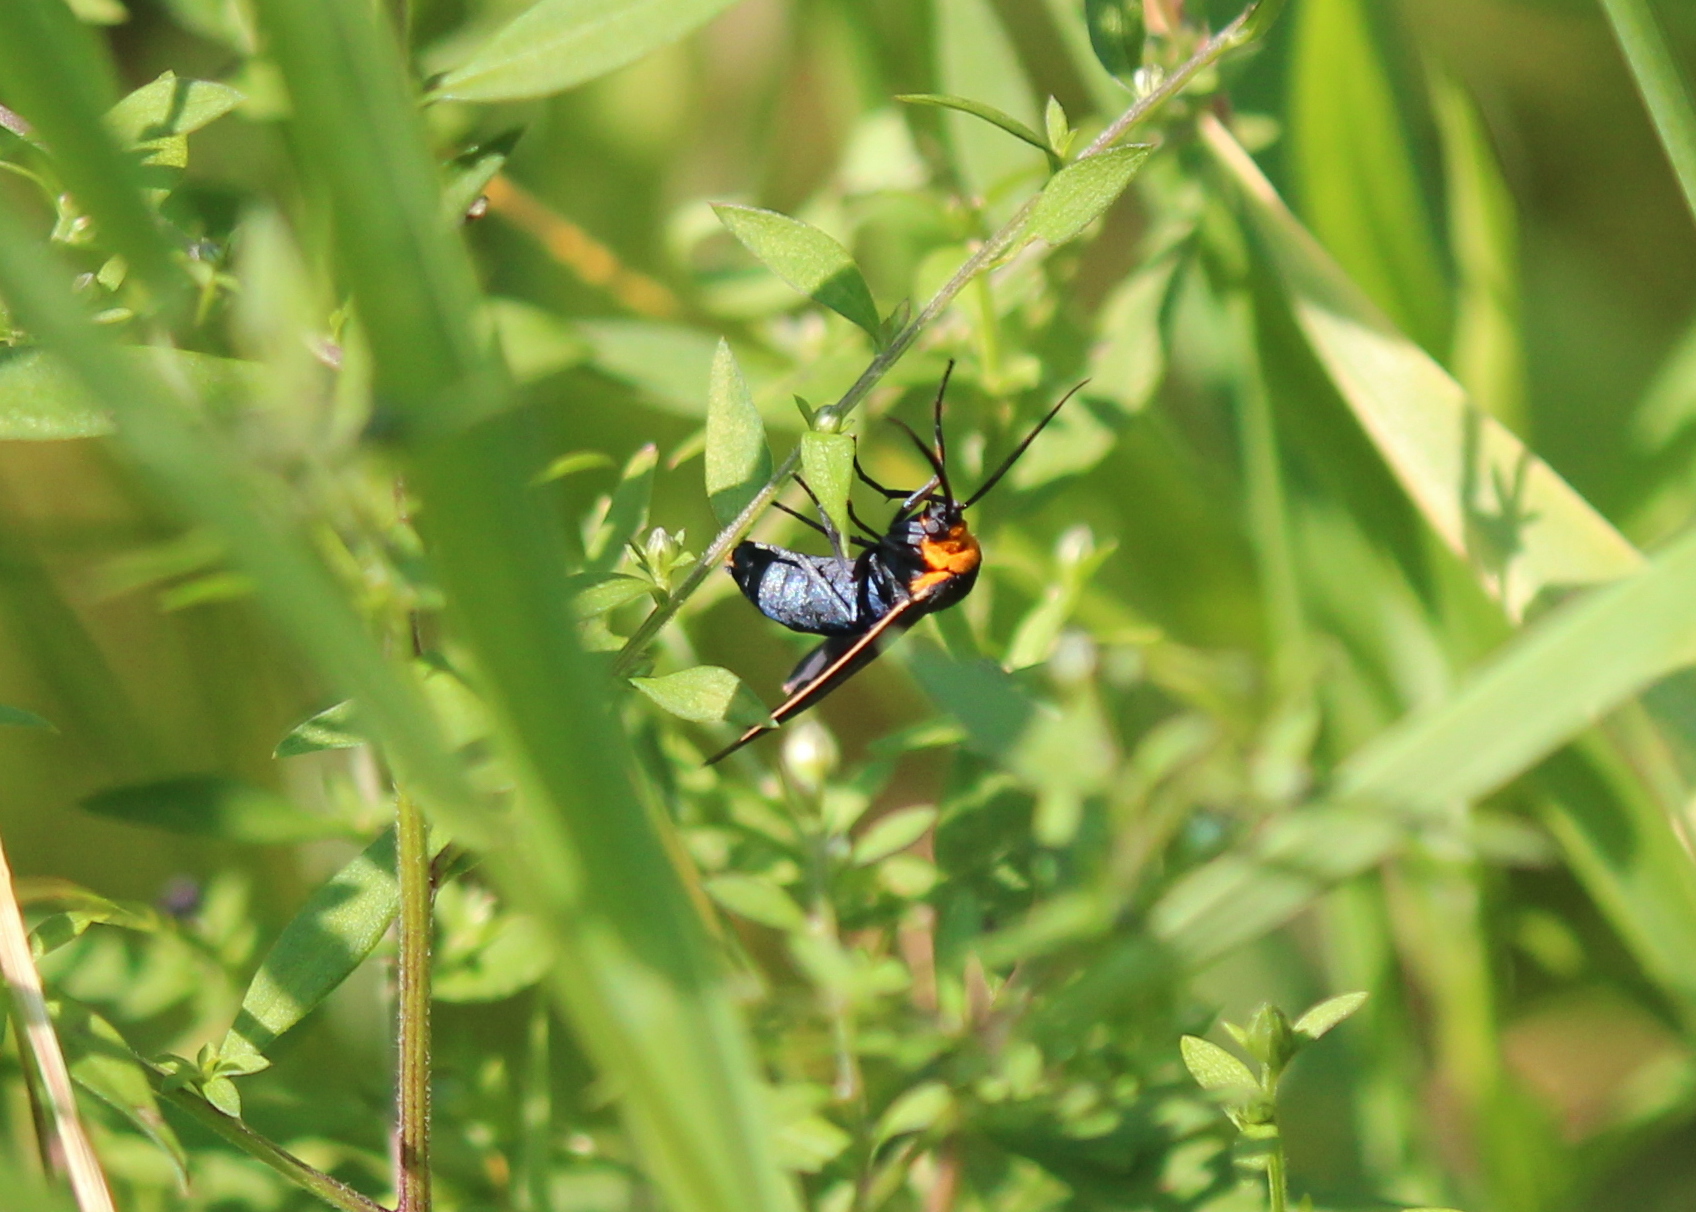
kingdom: Animalia
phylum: Arthropoda
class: Insecta
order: Lepidoptera
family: Erebidae
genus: Cisseps
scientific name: Cisseps fulvicollis
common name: Yellow-collared scape moth
